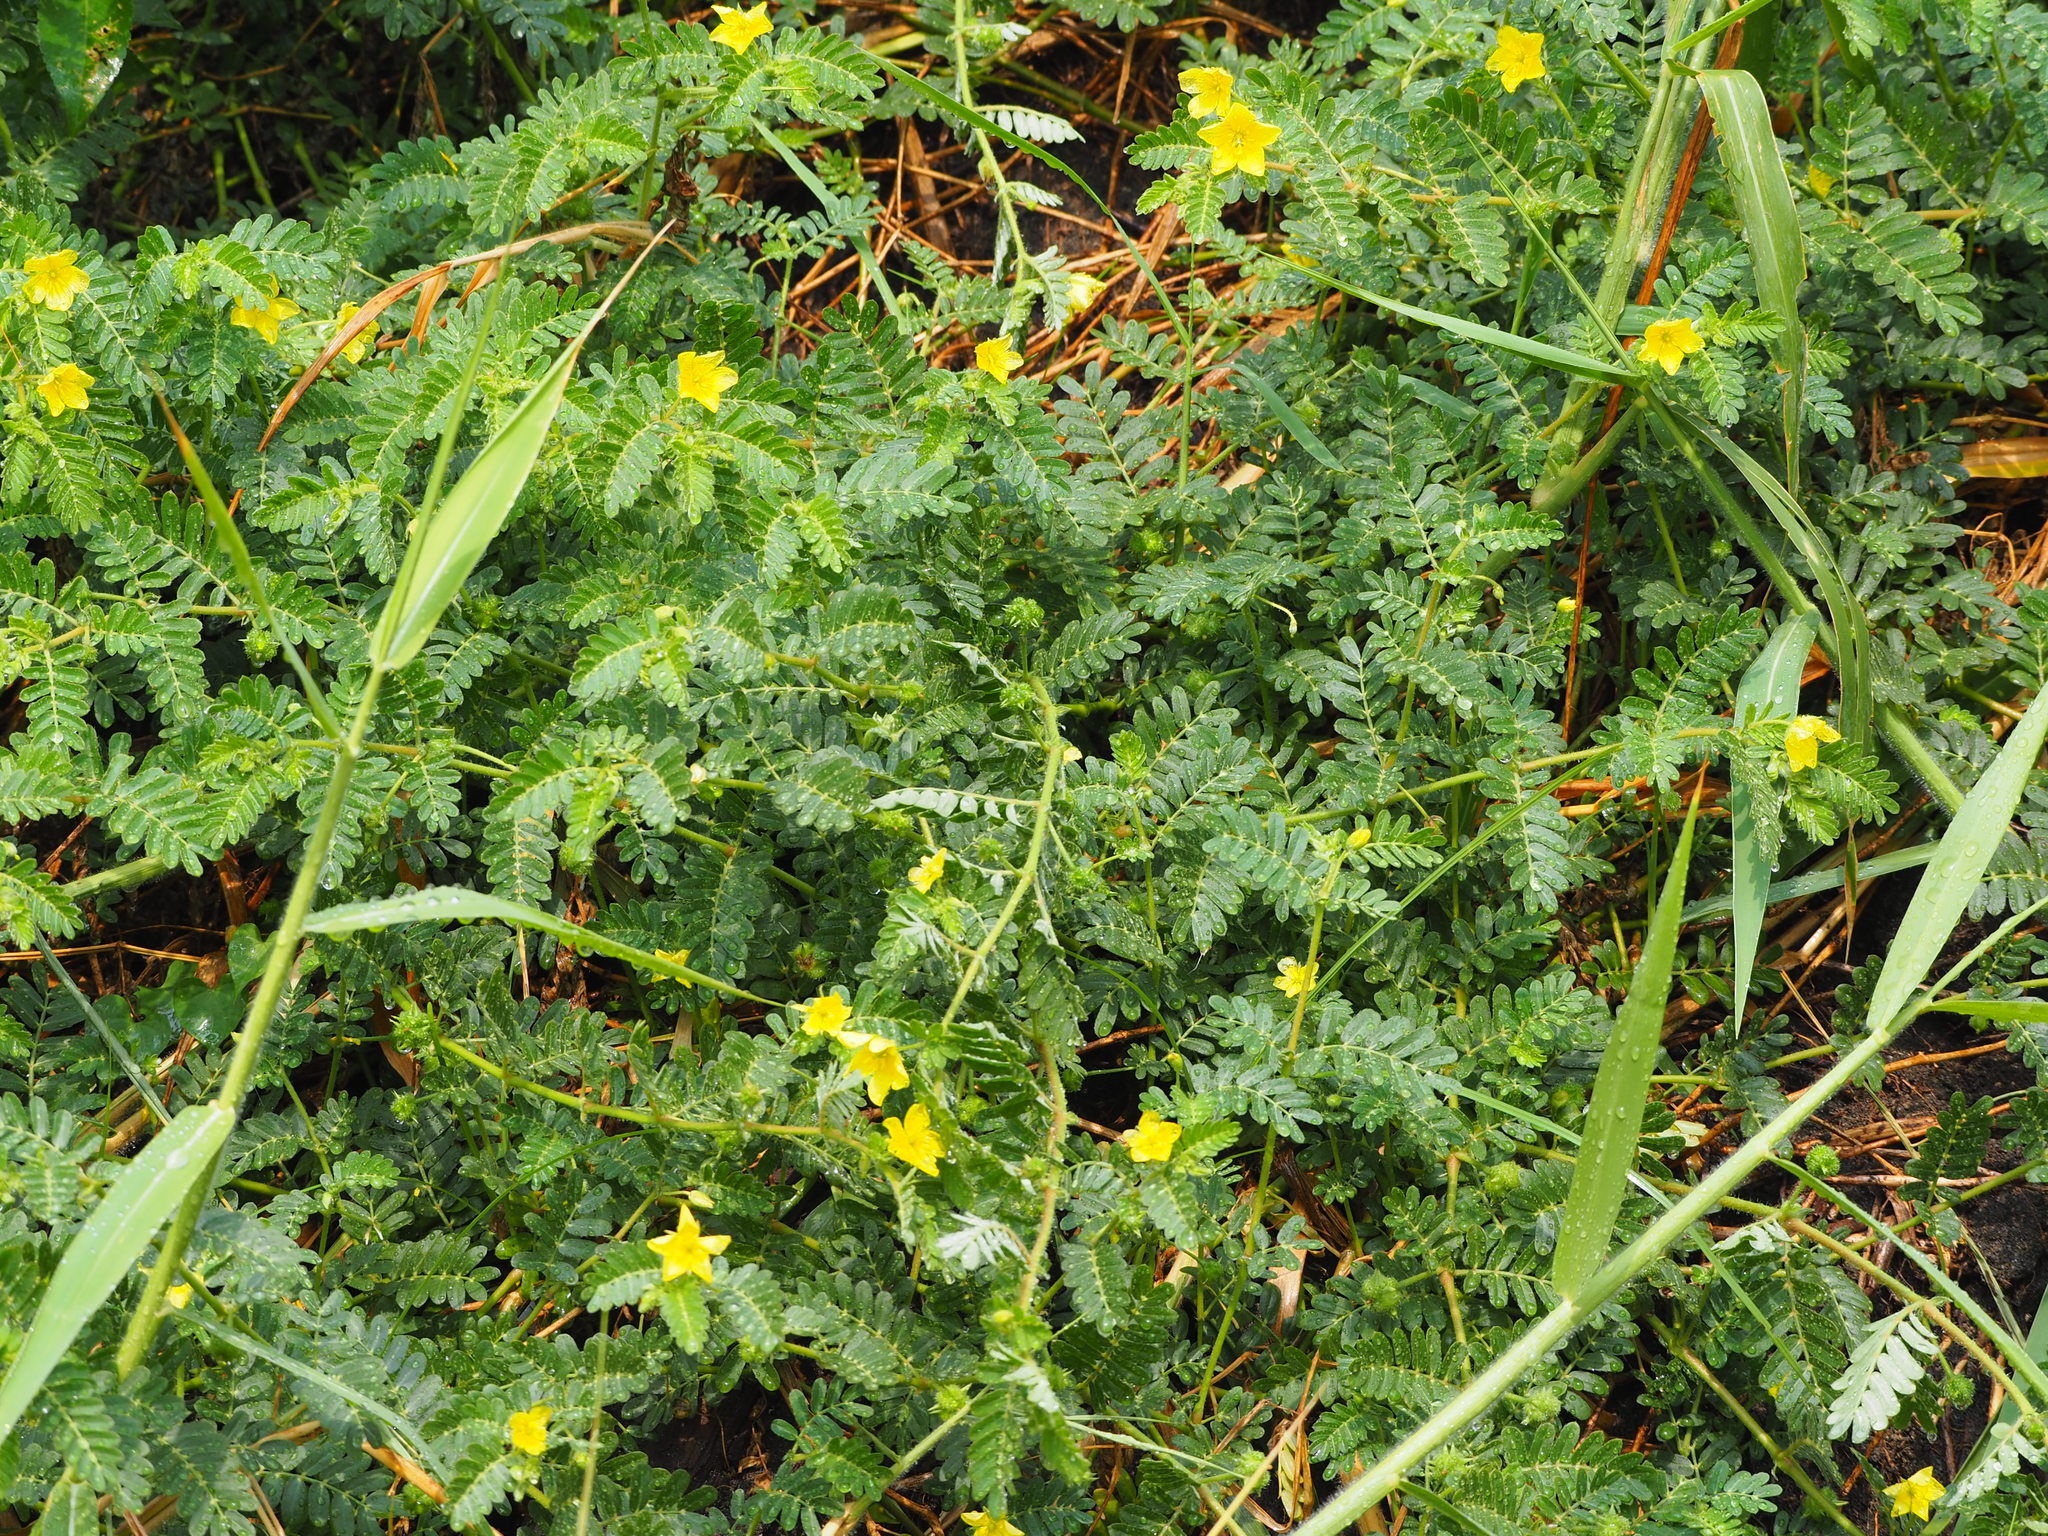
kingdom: Plantae
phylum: Tracheophyta
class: Magnoliopsida
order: Zygophyllales
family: Zygophyllaceae
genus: Tribulus
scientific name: Tribulus cistoides
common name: Jamaican feverplant
